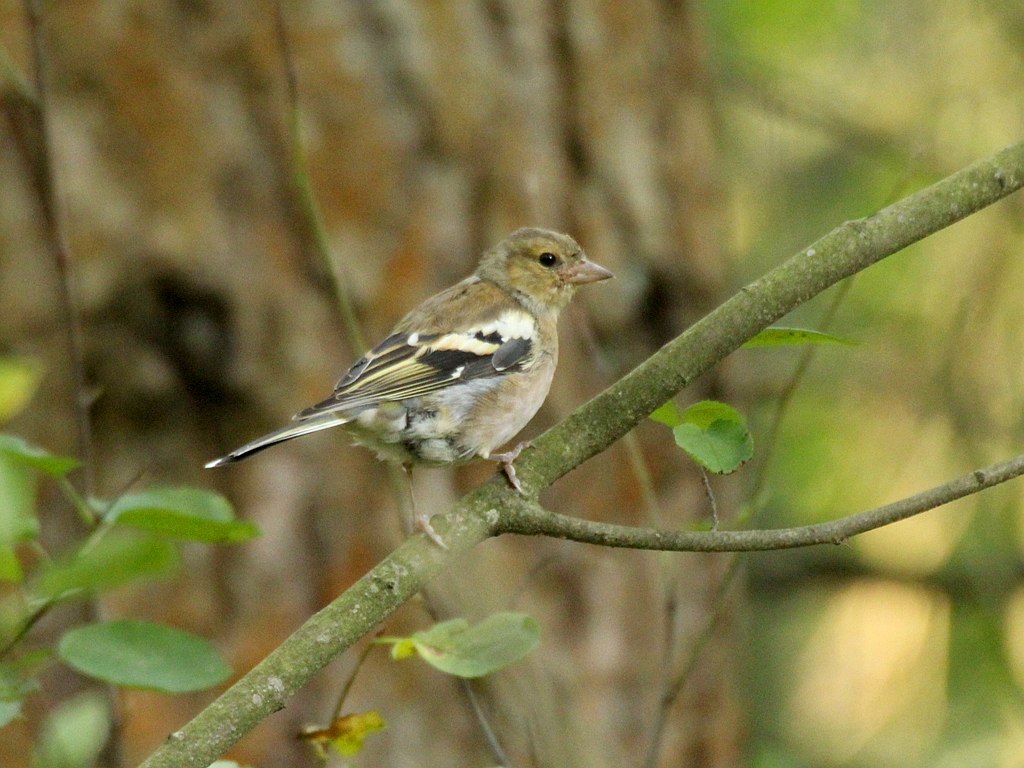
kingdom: Animalia
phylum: Chordata
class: Aves
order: Passeriformes
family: Fringillidae
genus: Fringilla
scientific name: Fringilla coelebs
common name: Common chaffinch
